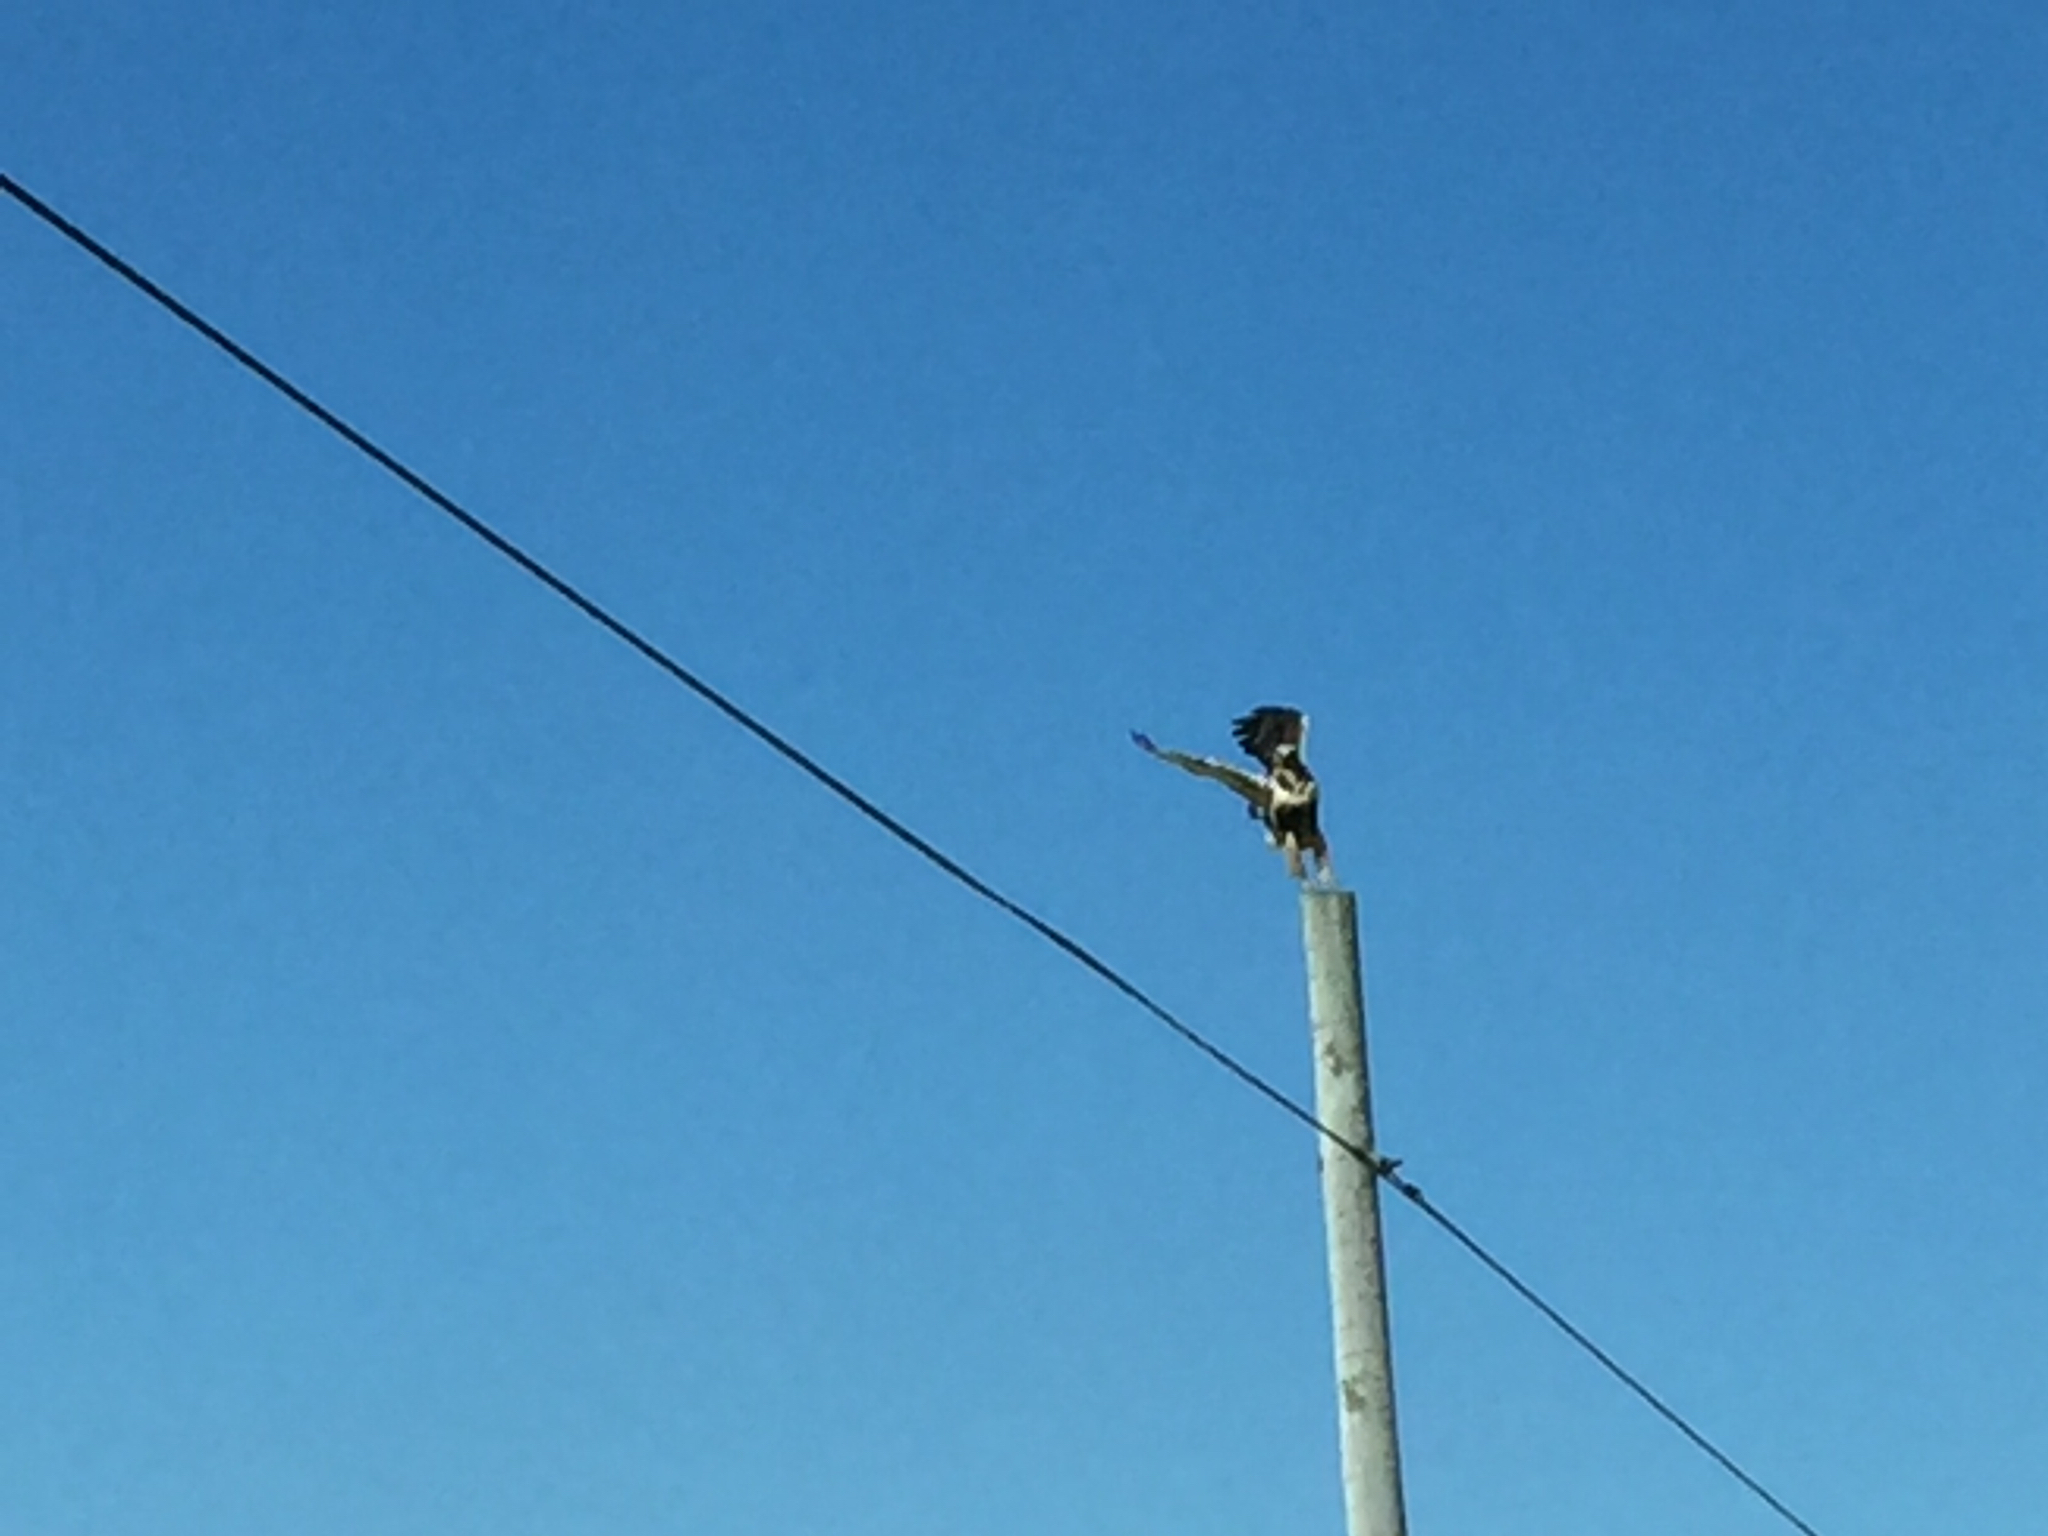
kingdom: Animalia
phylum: Chordata
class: Aves
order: Accipitriformes
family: Accipitridae
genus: Buteo
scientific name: Buteo lagopus
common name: Rough-legged buzzard
